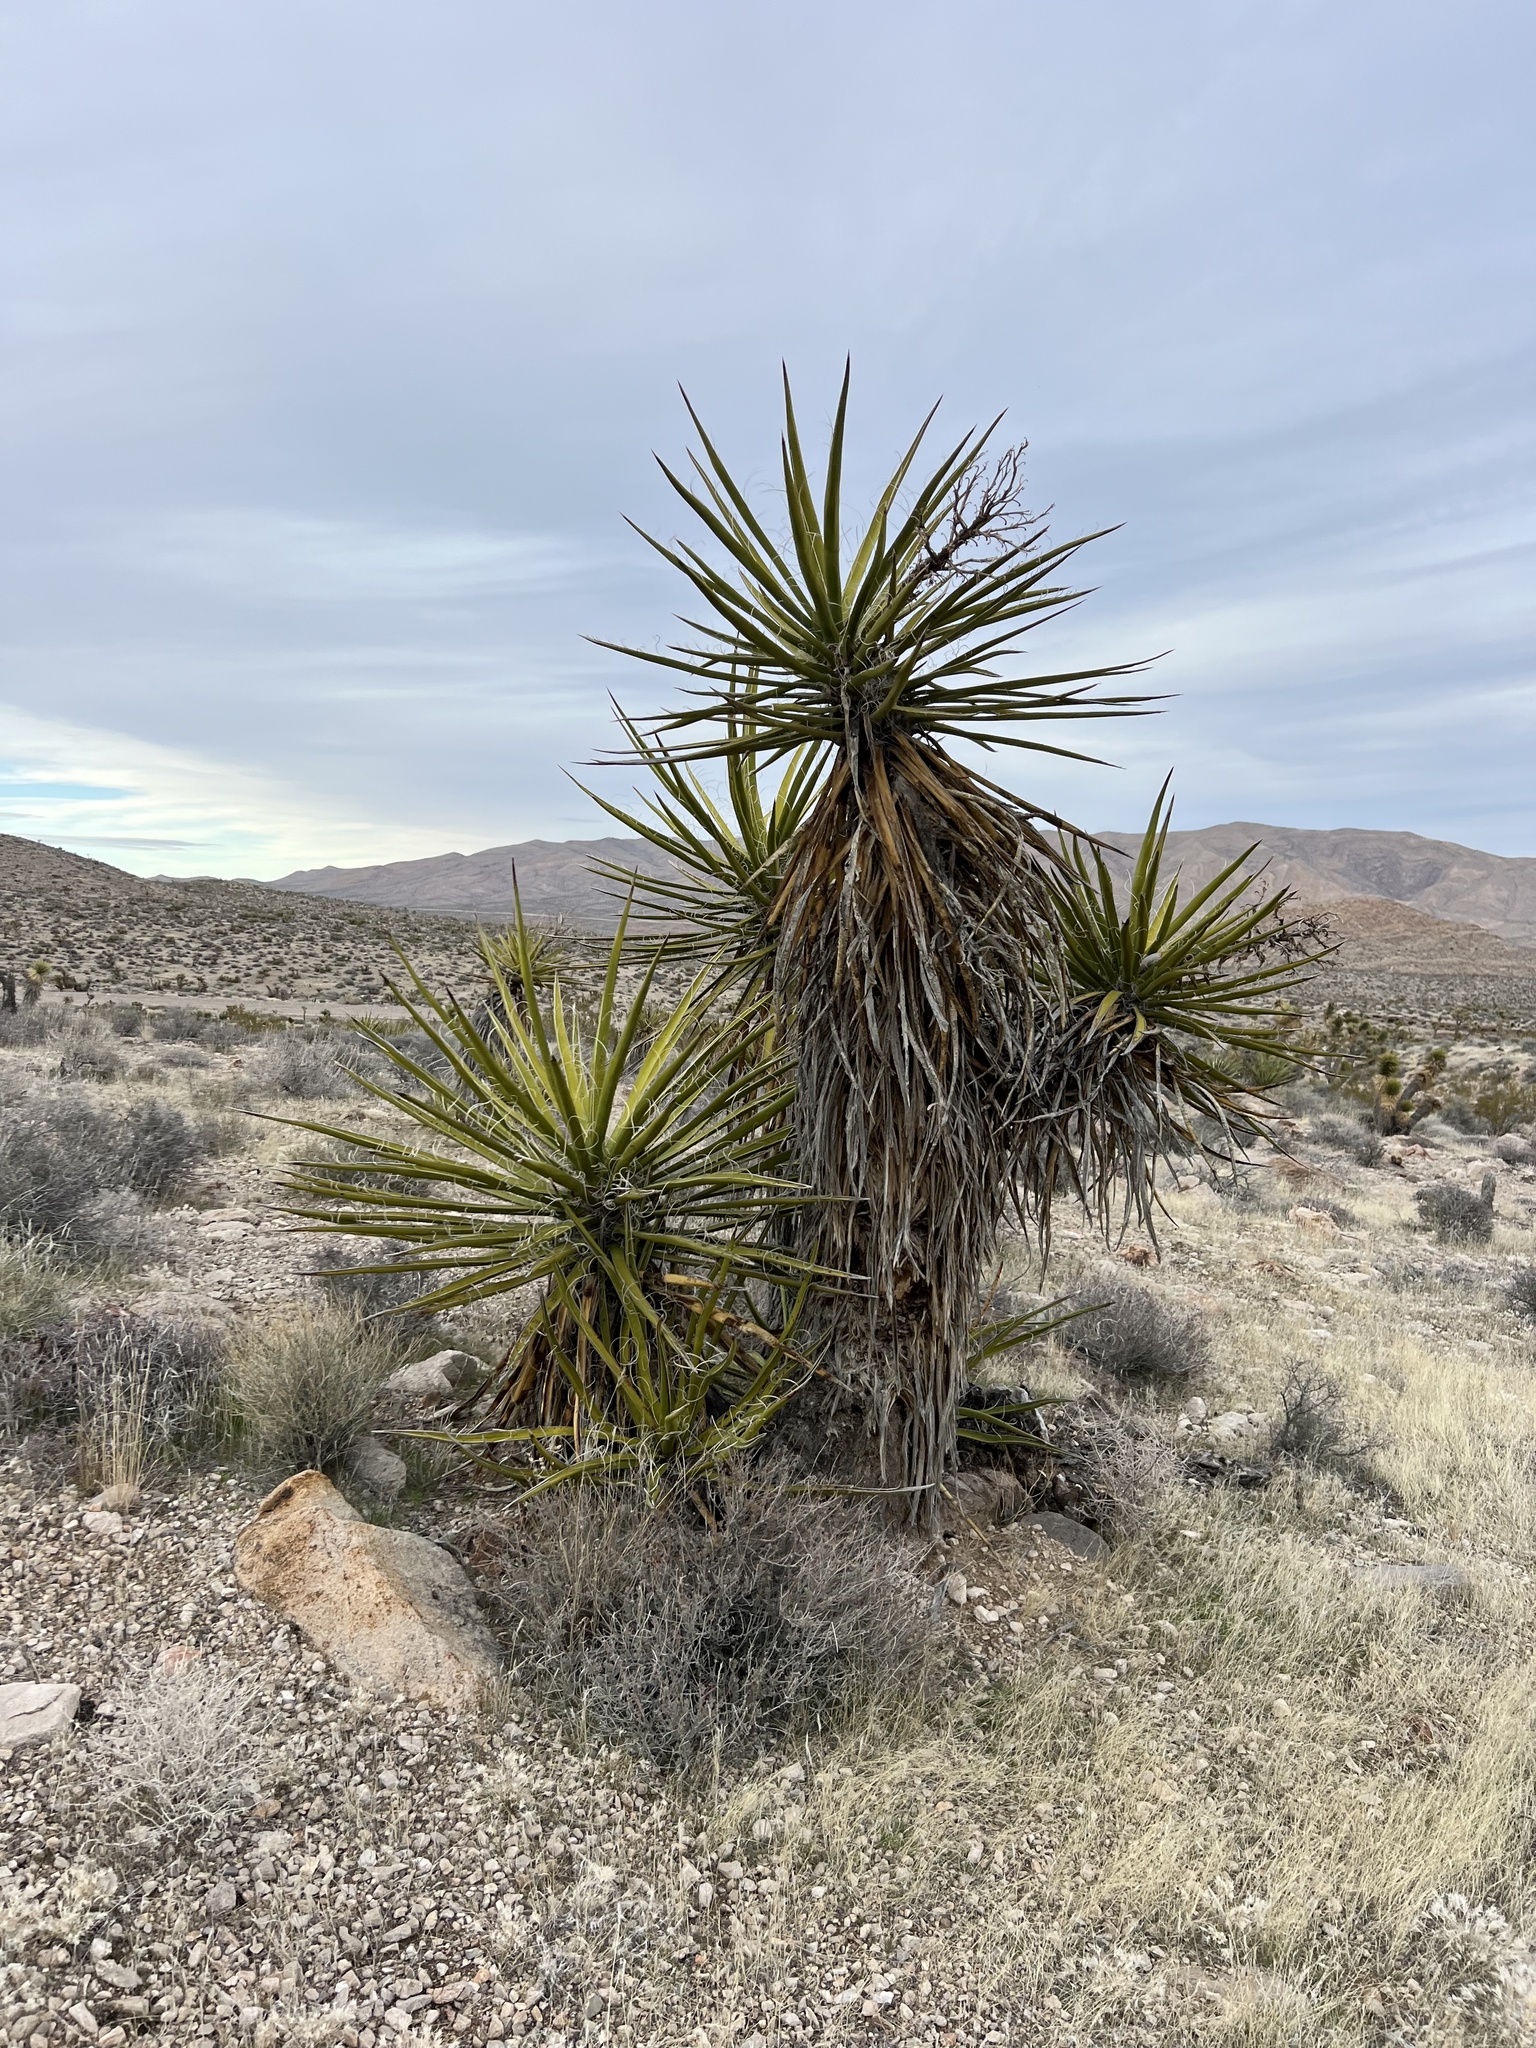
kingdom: Plantae
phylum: Tracheophyta
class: Liliopsida
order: Asparagales
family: Asparagaceae
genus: Yucca
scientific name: Yucca schidigera
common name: Mojave yucca
